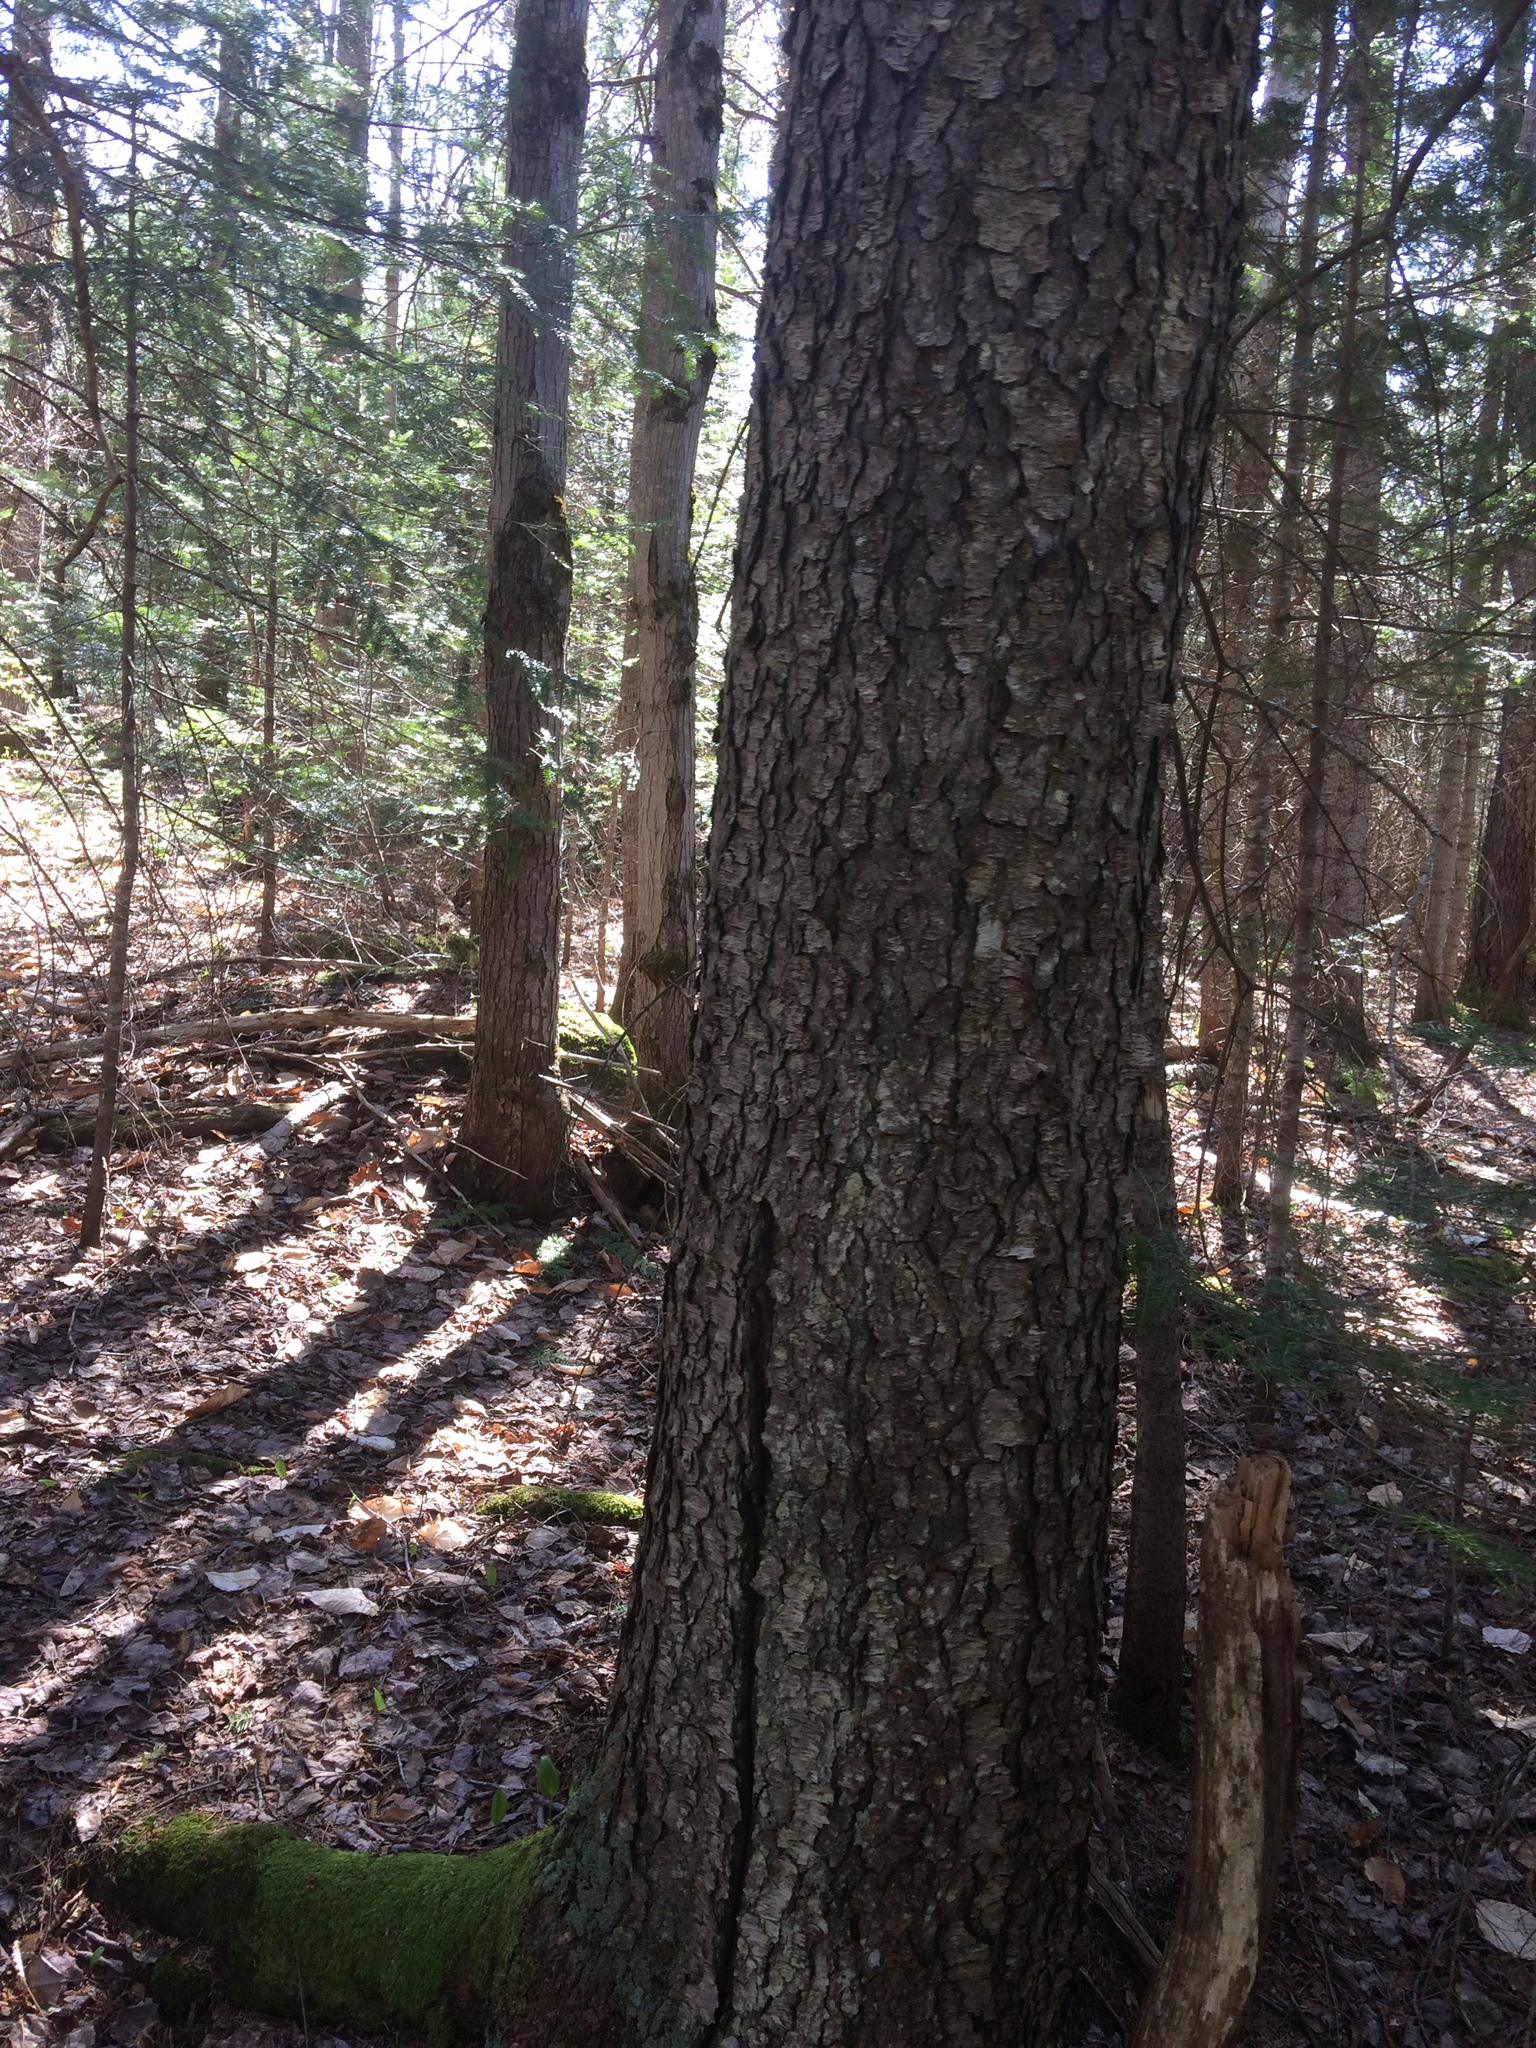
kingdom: Plantae
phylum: Tracheophyta
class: Magnoliopsida
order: Rosales
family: Rosaceae
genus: Prunus
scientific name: Prunus serotina
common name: Black cherry
